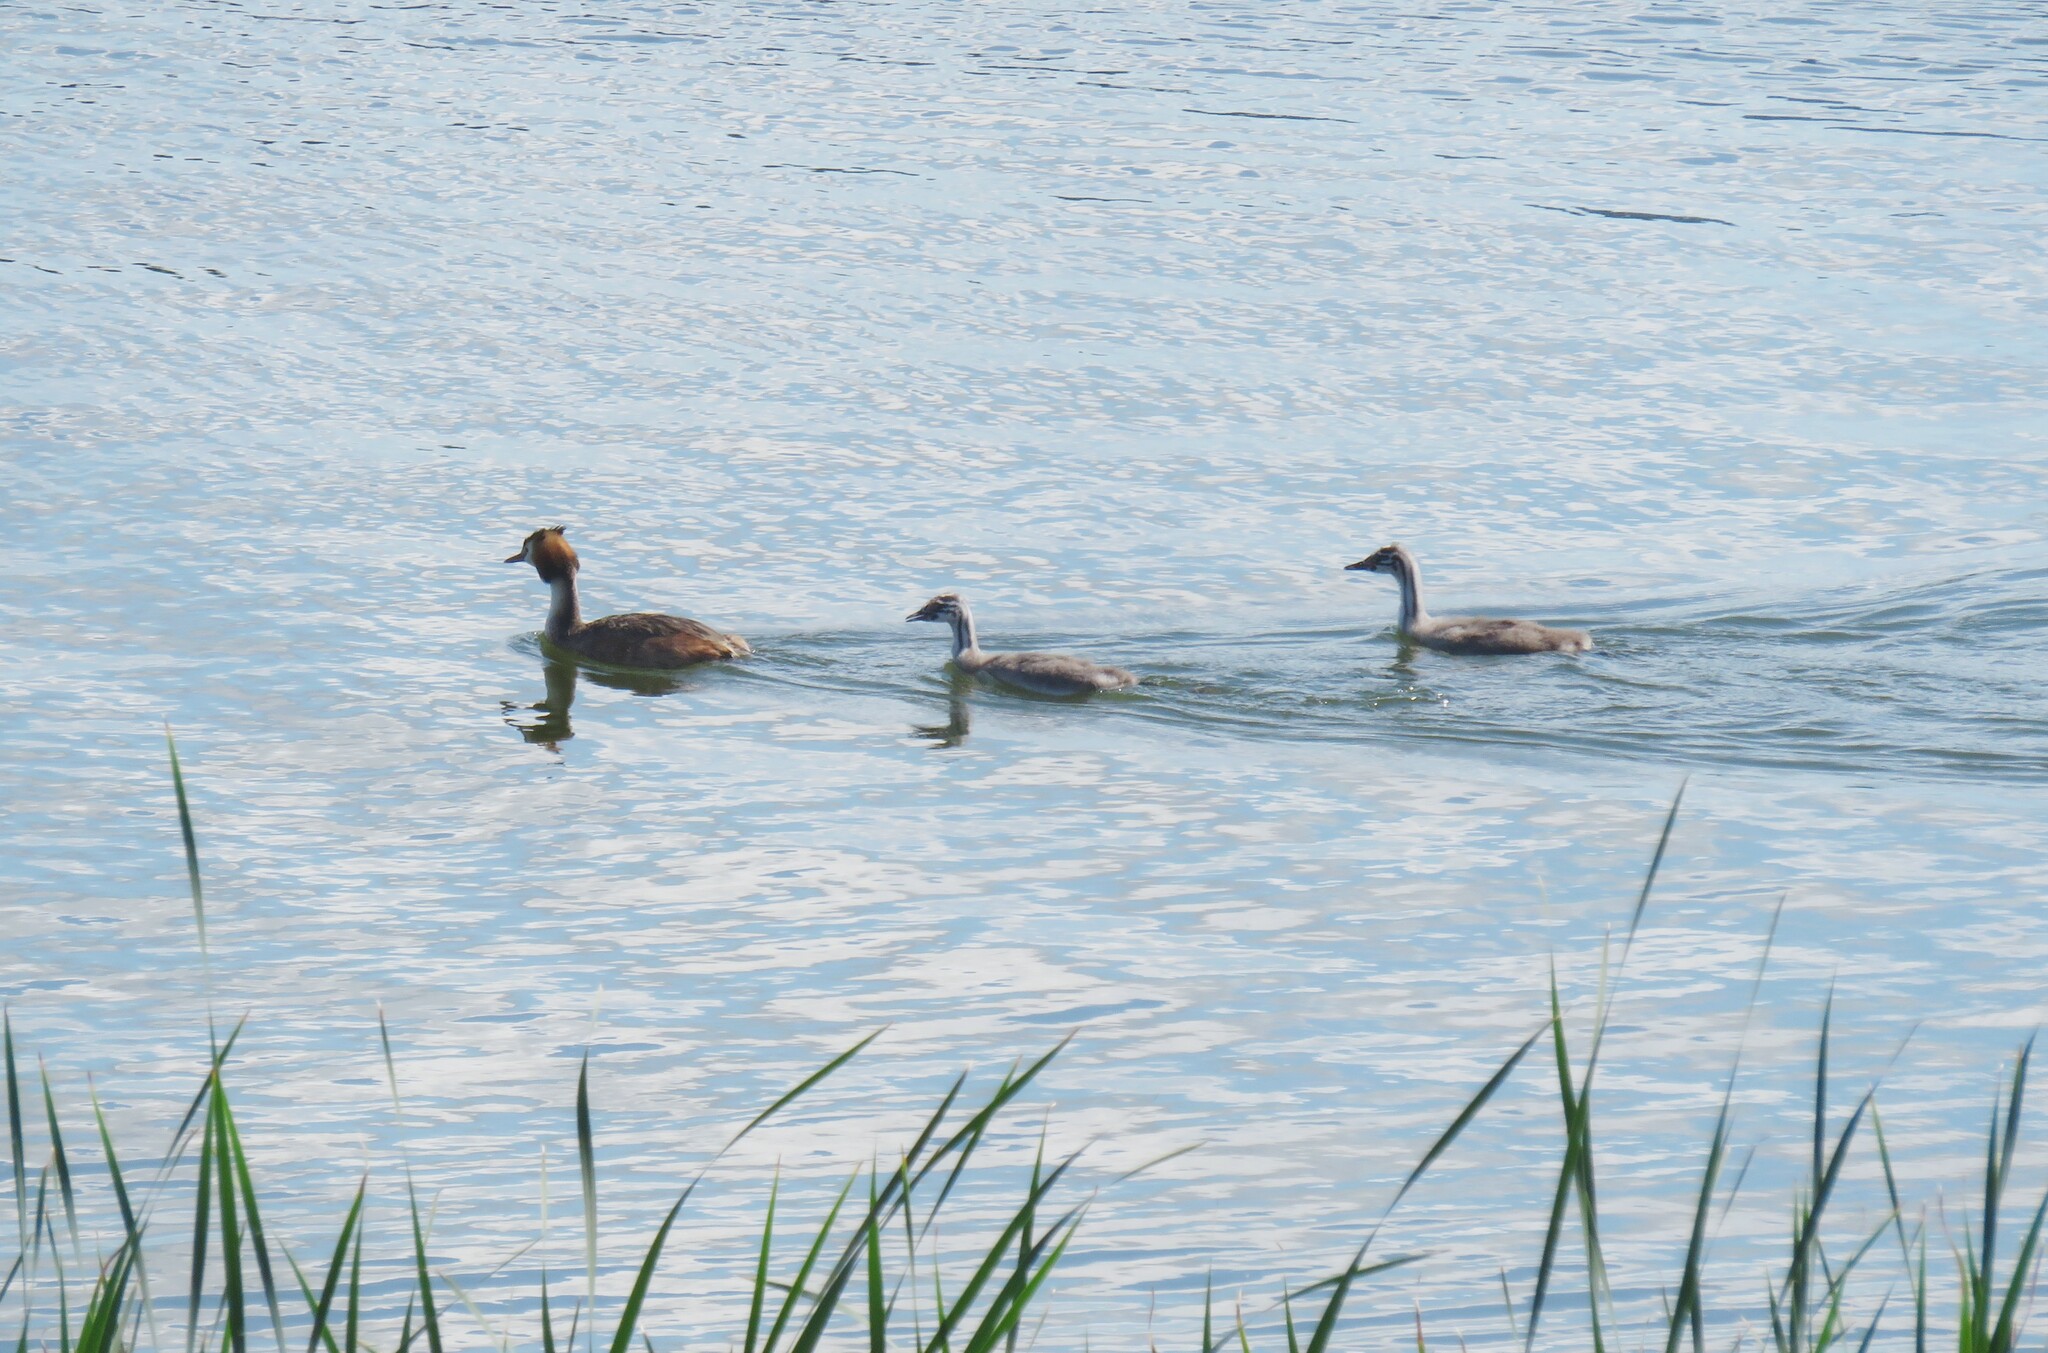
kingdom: Animalia
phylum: Chordata
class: Aves
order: Podicipediformes
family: Podicipedidae
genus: Podiceps
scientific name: Podiceps cristatus
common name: Great crested grebe
